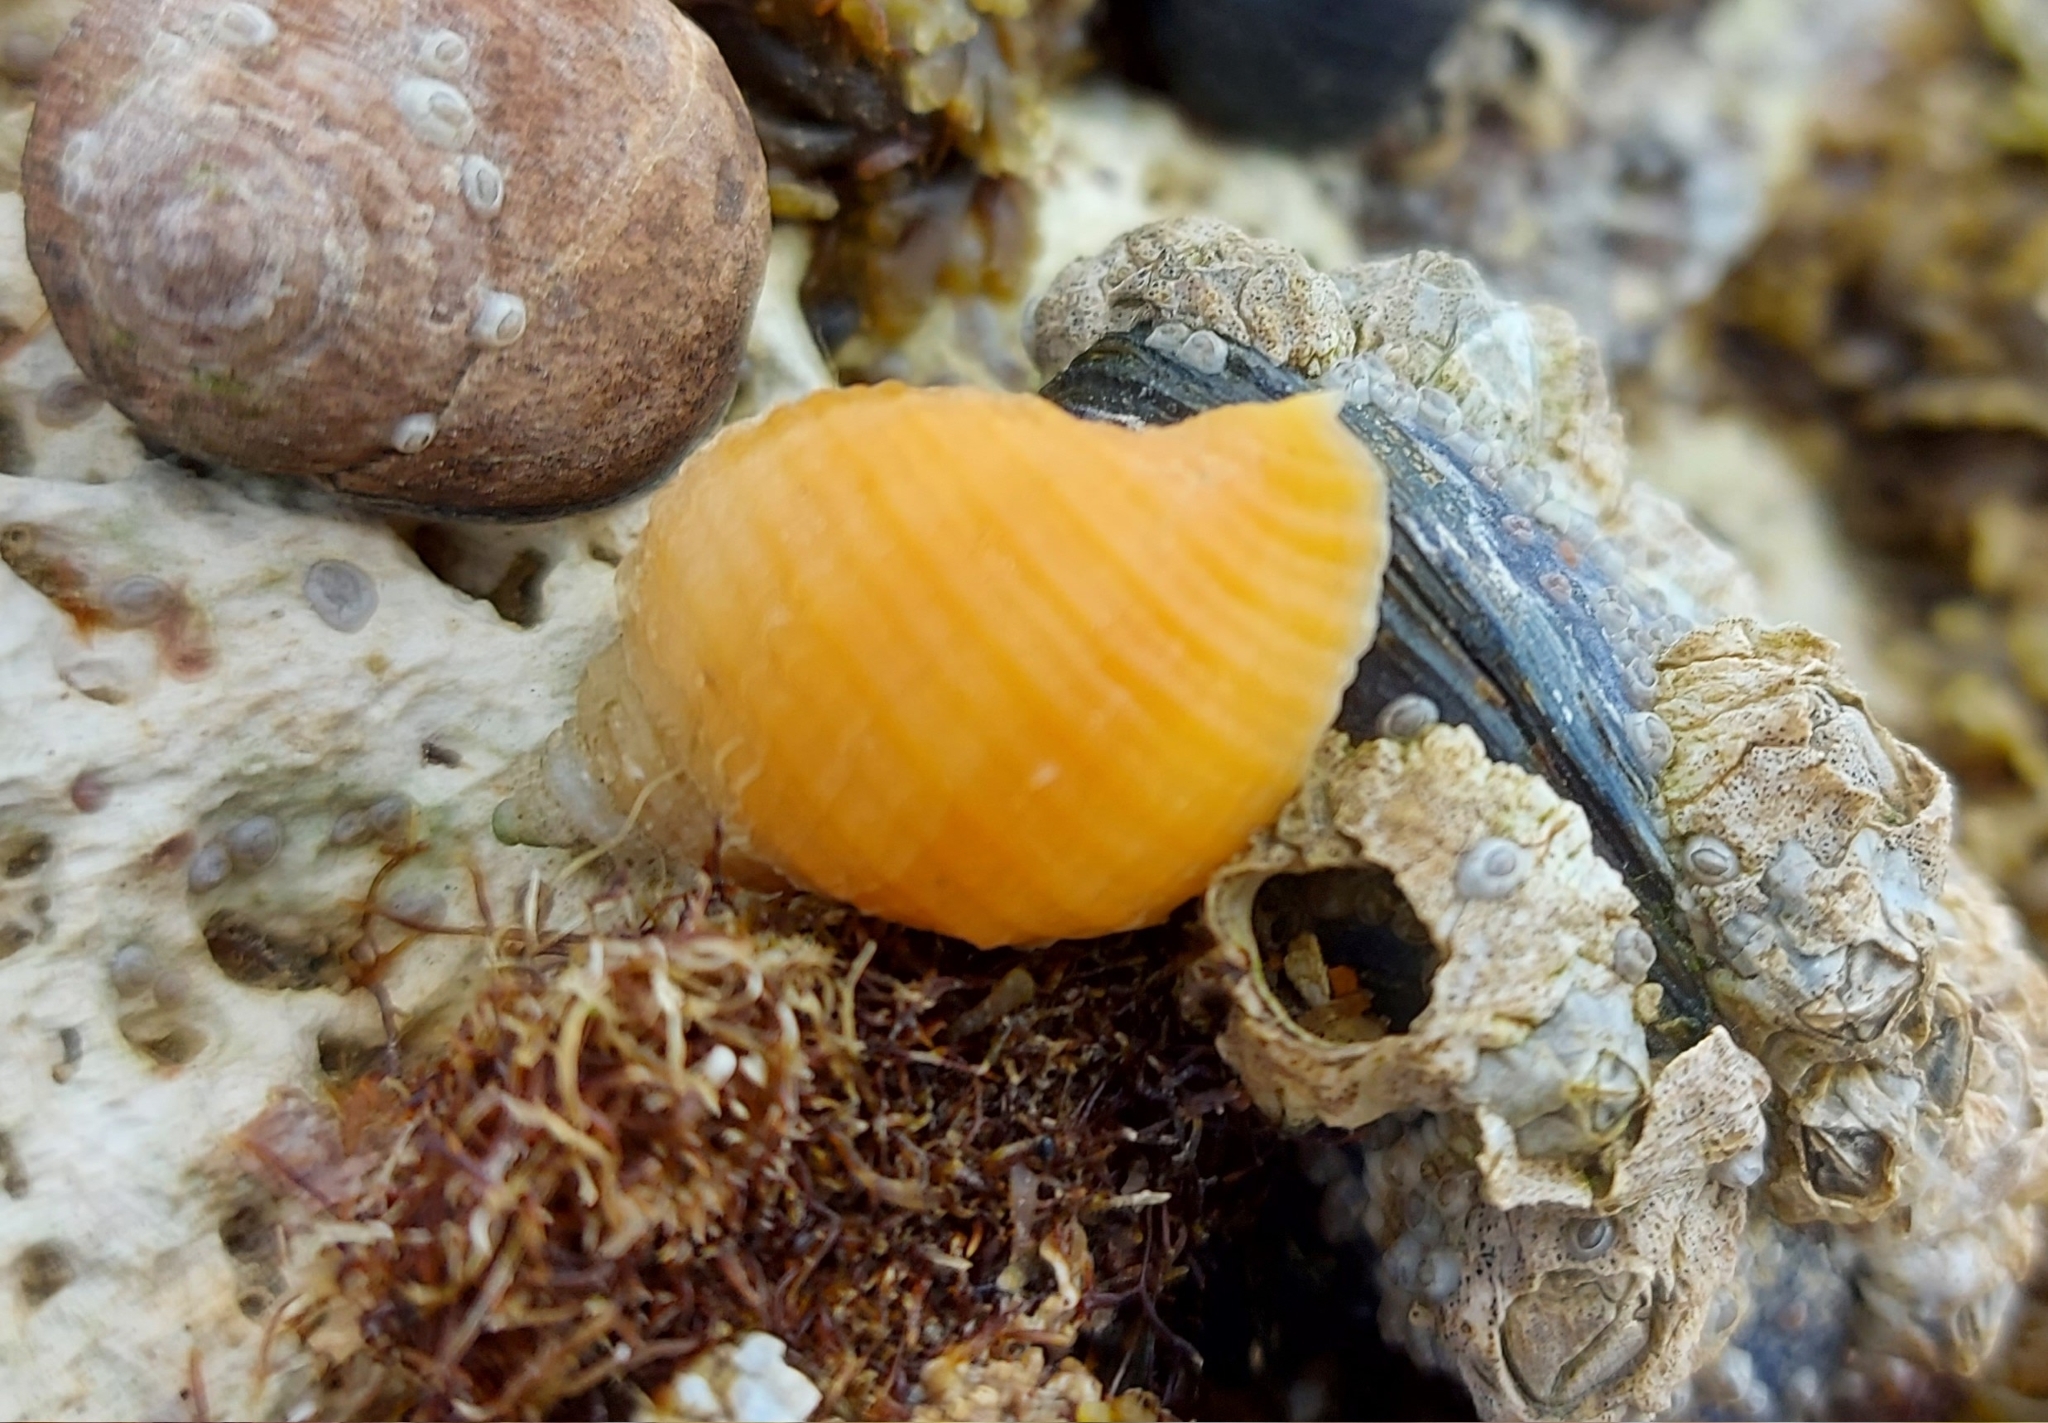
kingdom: Animalia
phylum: Mollusca
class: Gastropoda
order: Neogastropoda
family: Muricidae
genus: Nucella
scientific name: Nucella lapillus
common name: Dog whelk
